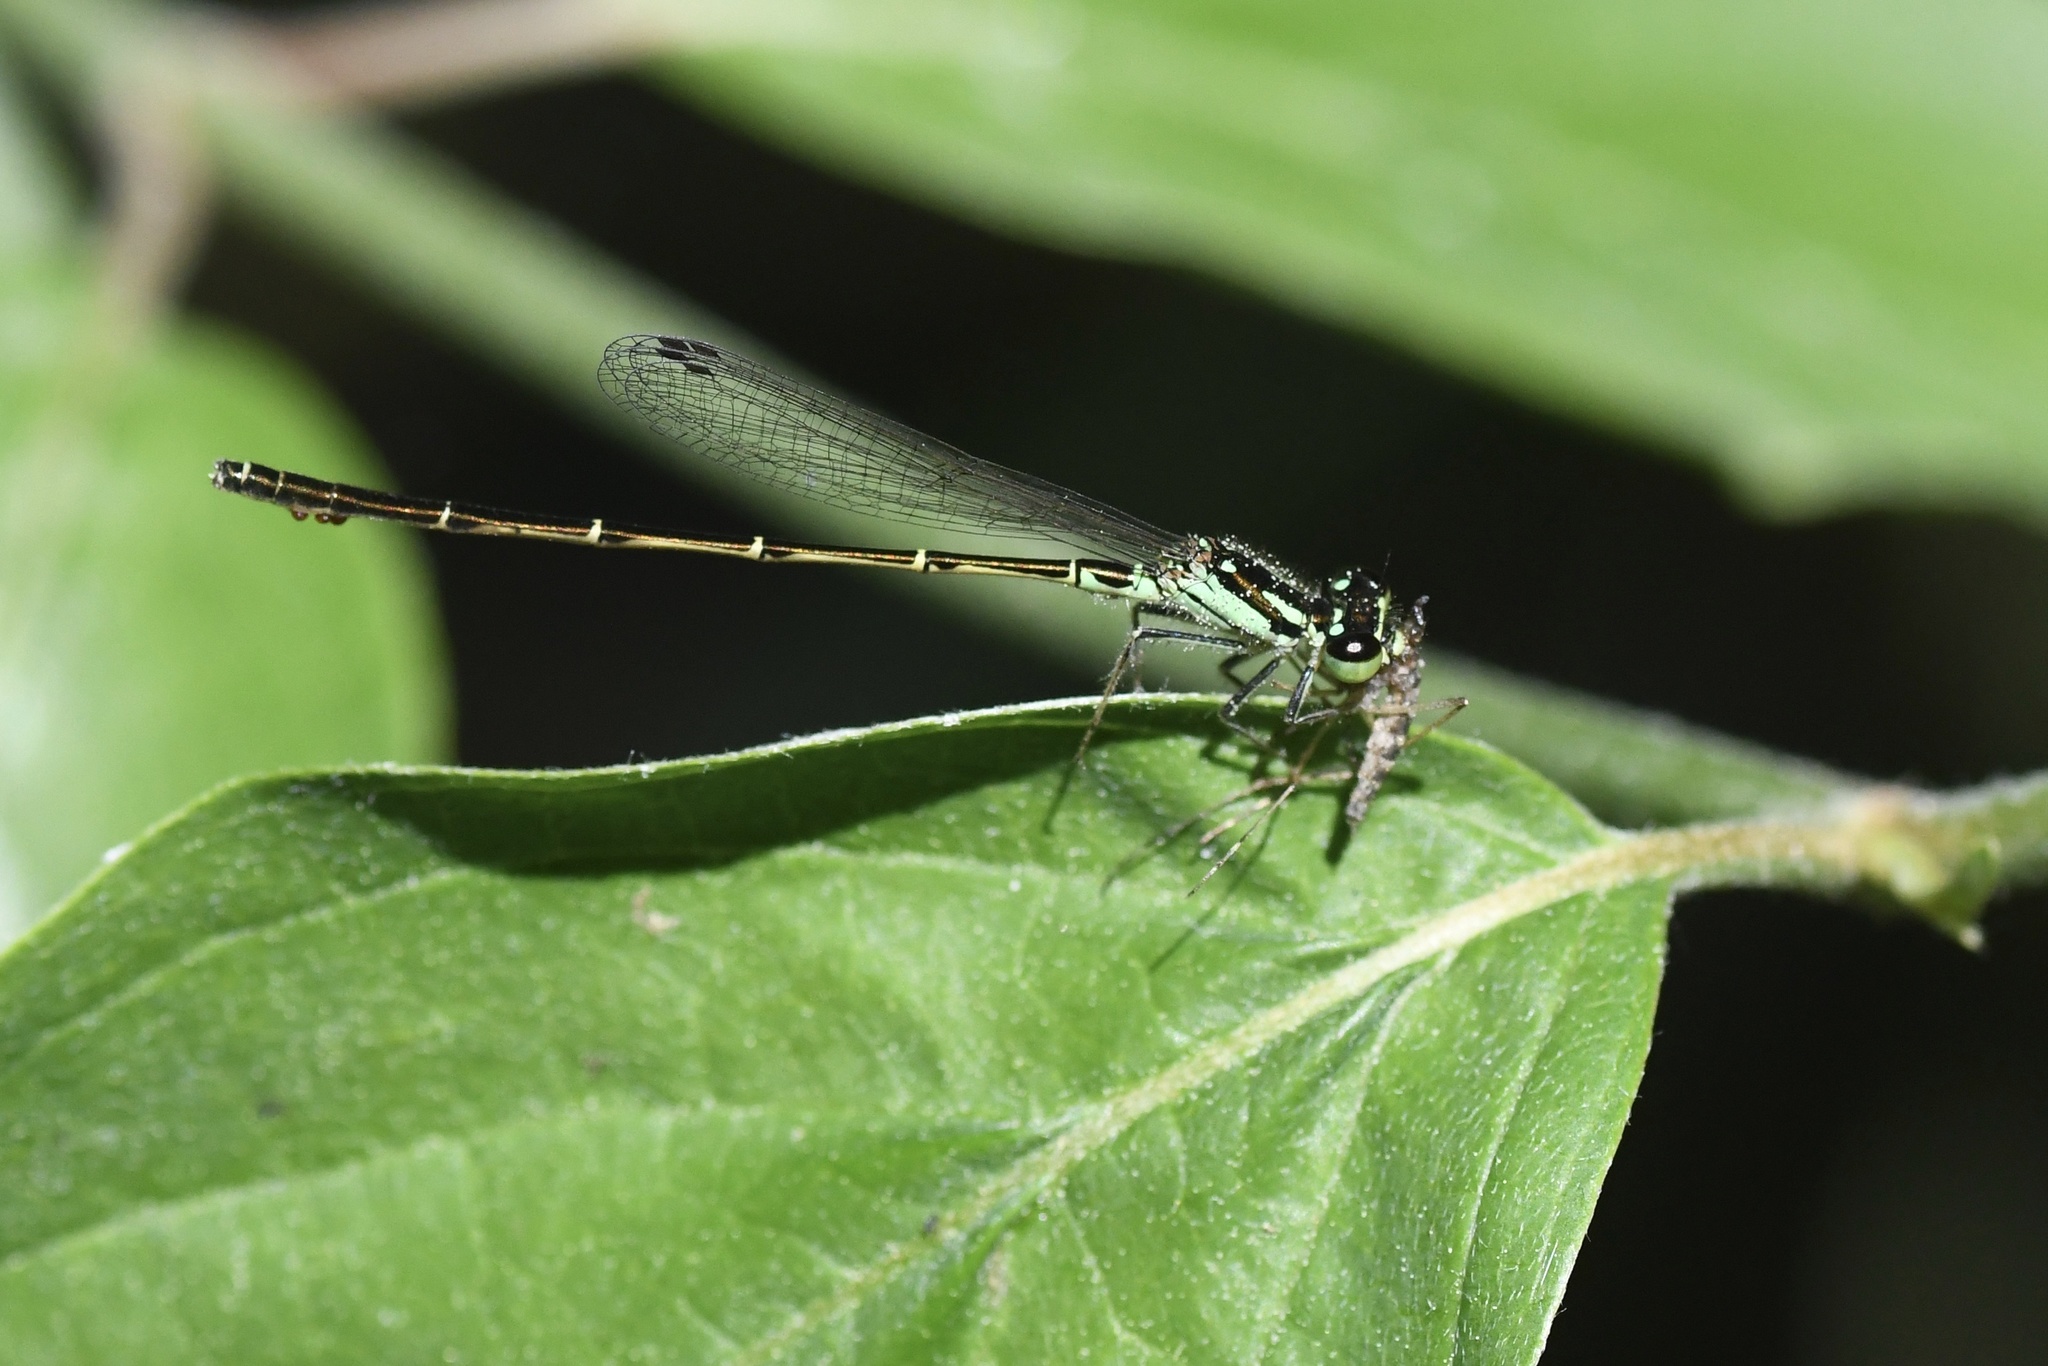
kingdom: Animalia
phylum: Arthropoda
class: Insecta
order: Odonata
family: Coenagrionidae
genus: Ischnura
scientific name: Ischnura posita
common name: Fragile forktail
